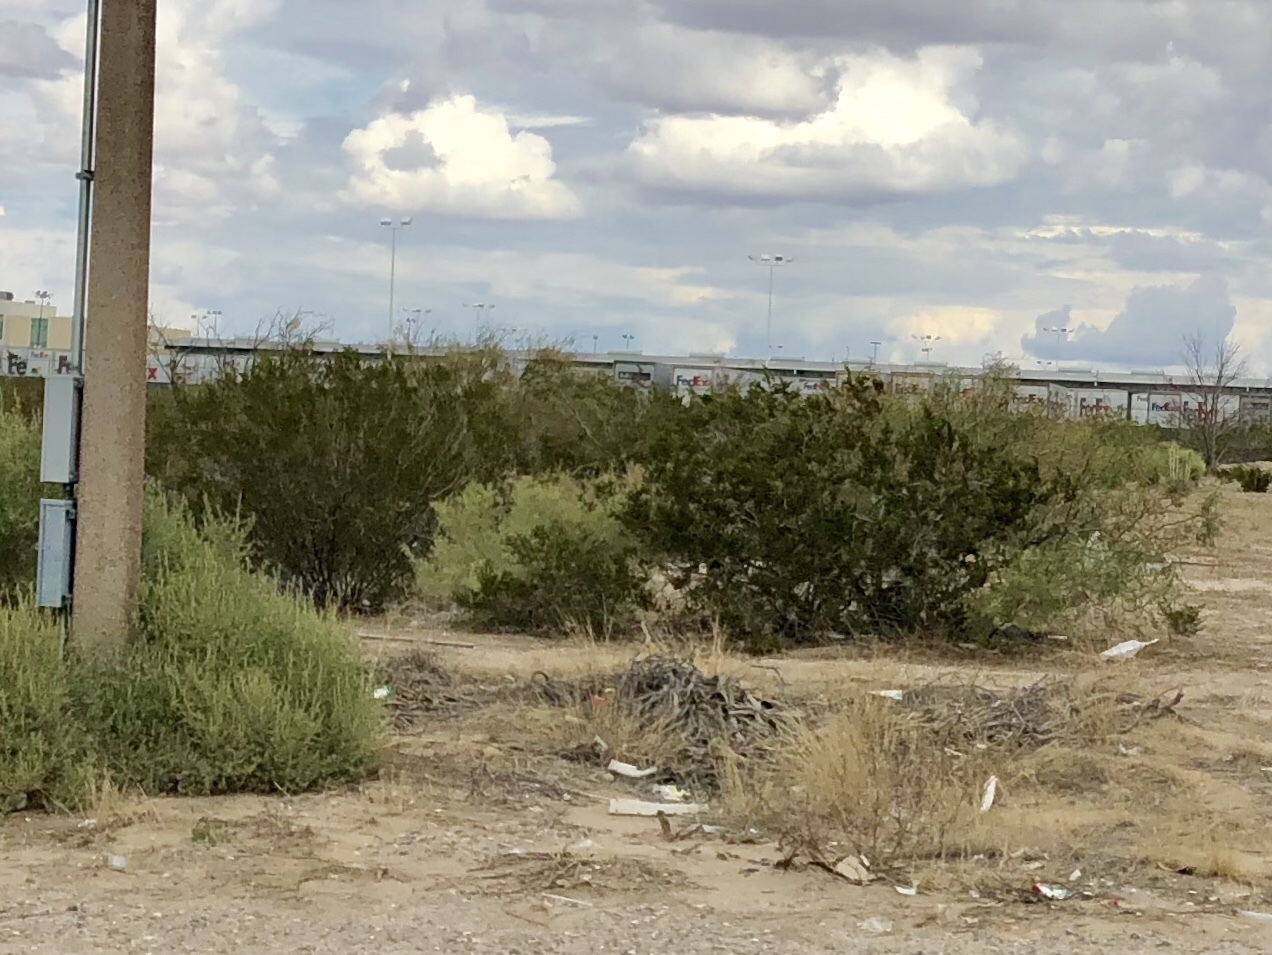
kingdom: Plantae
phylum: Tracheophyta
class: Magnoliopsida
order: Zygophyllales
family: Zygophyllaceae
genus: Larrea
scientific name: Larrea tridentata
